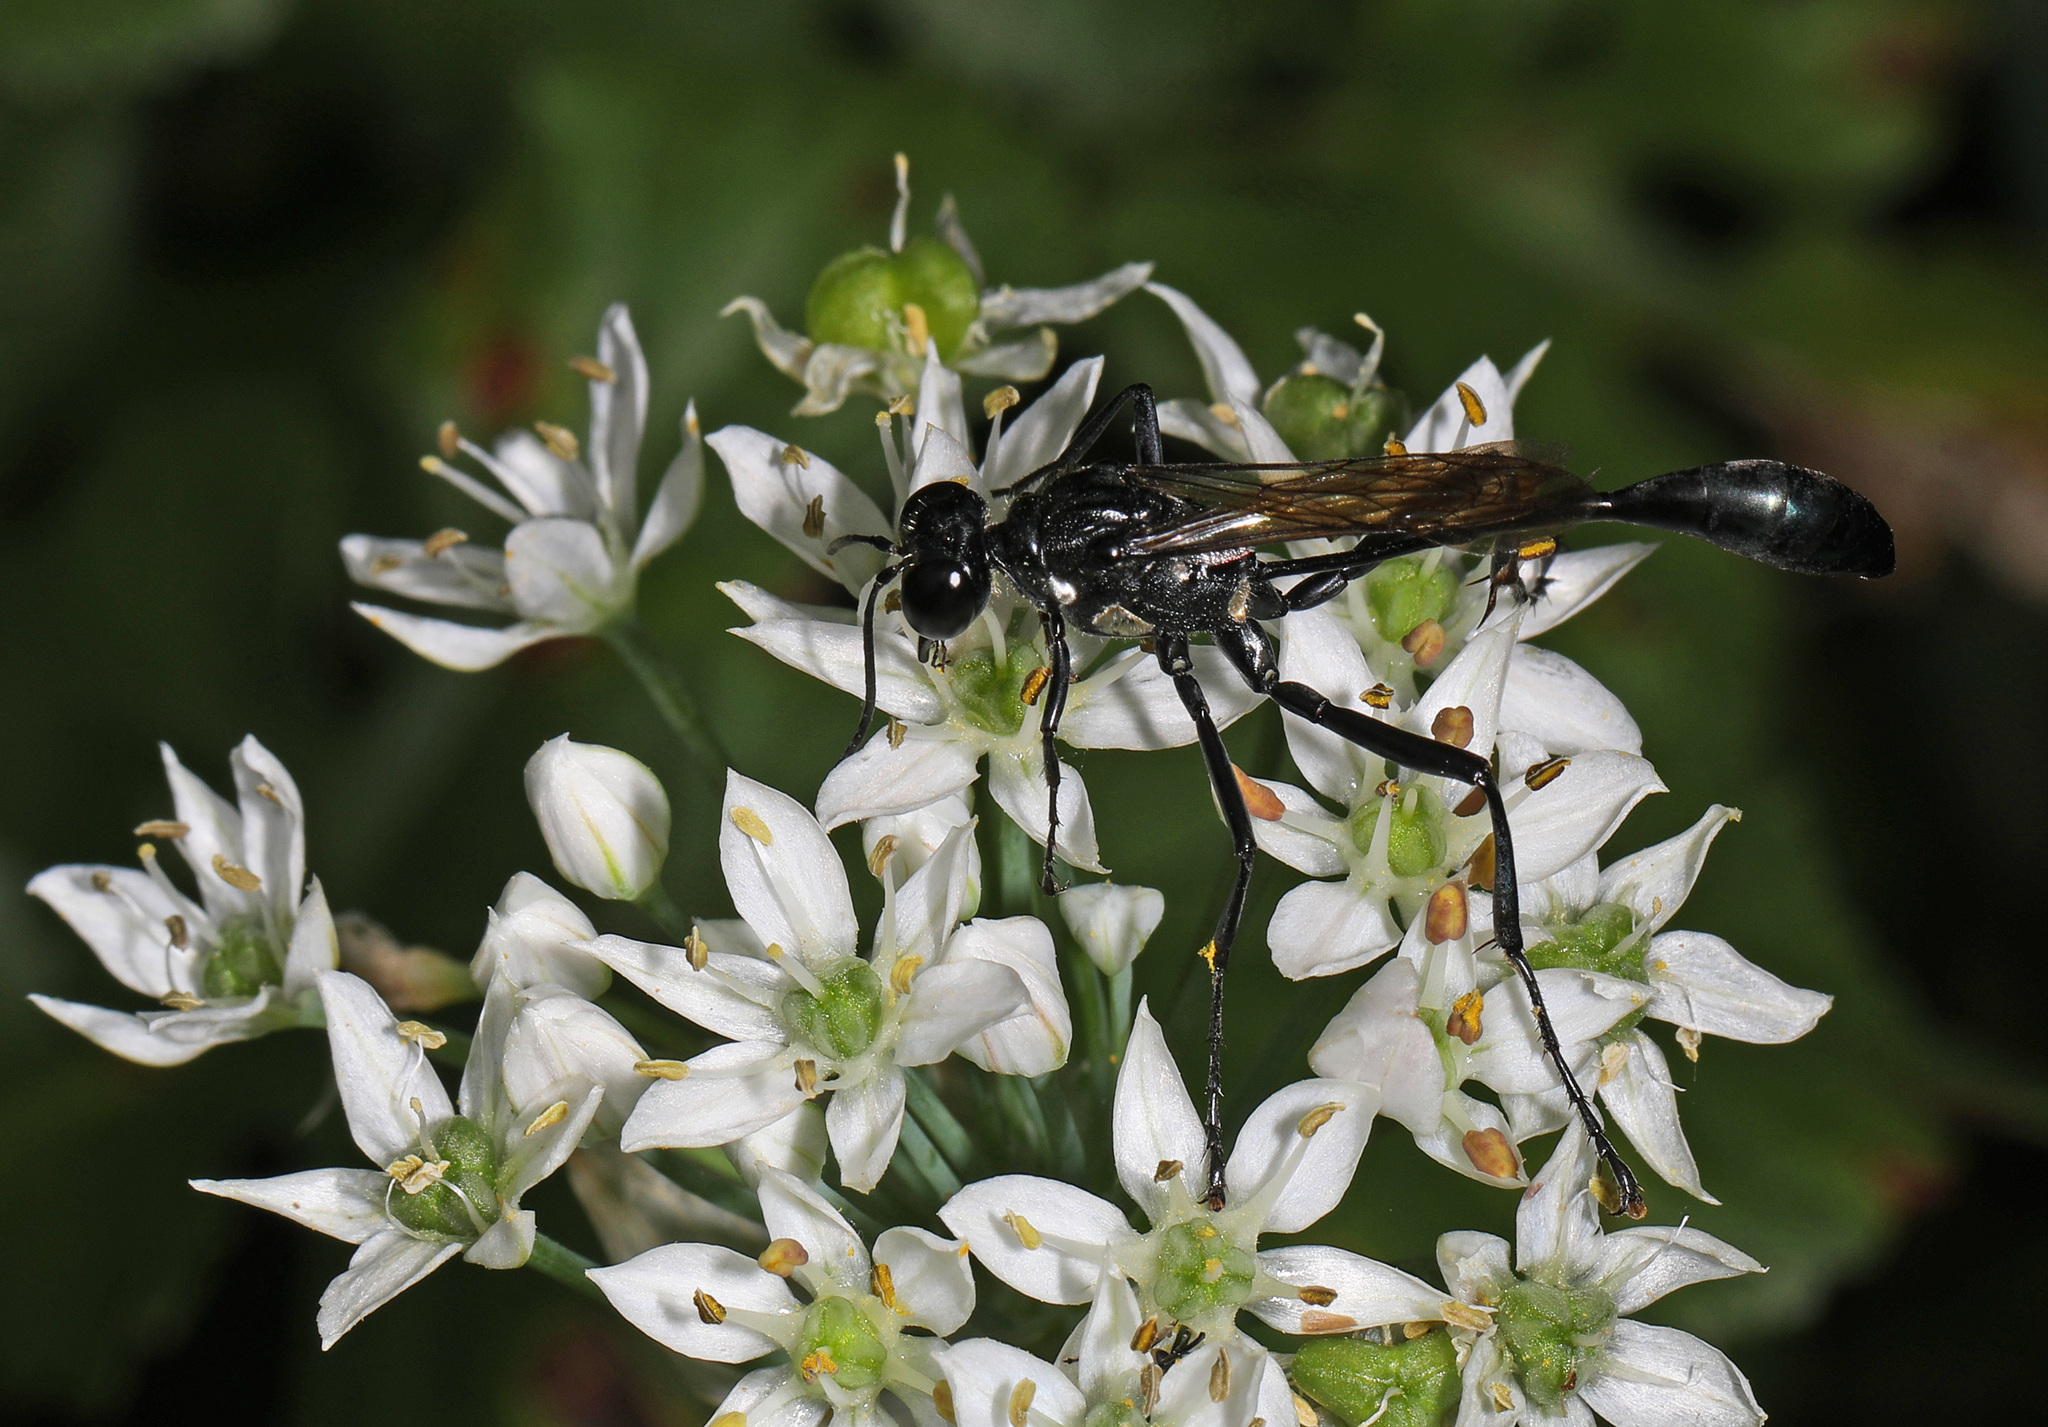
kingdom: Animalia
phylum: Arthropoda
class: Insecta
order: Hymenoptera
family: Sphecidae
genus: Eremnophila
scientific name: Eremnophila aureonotata
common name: Gold-marked thread-waisted wasp
